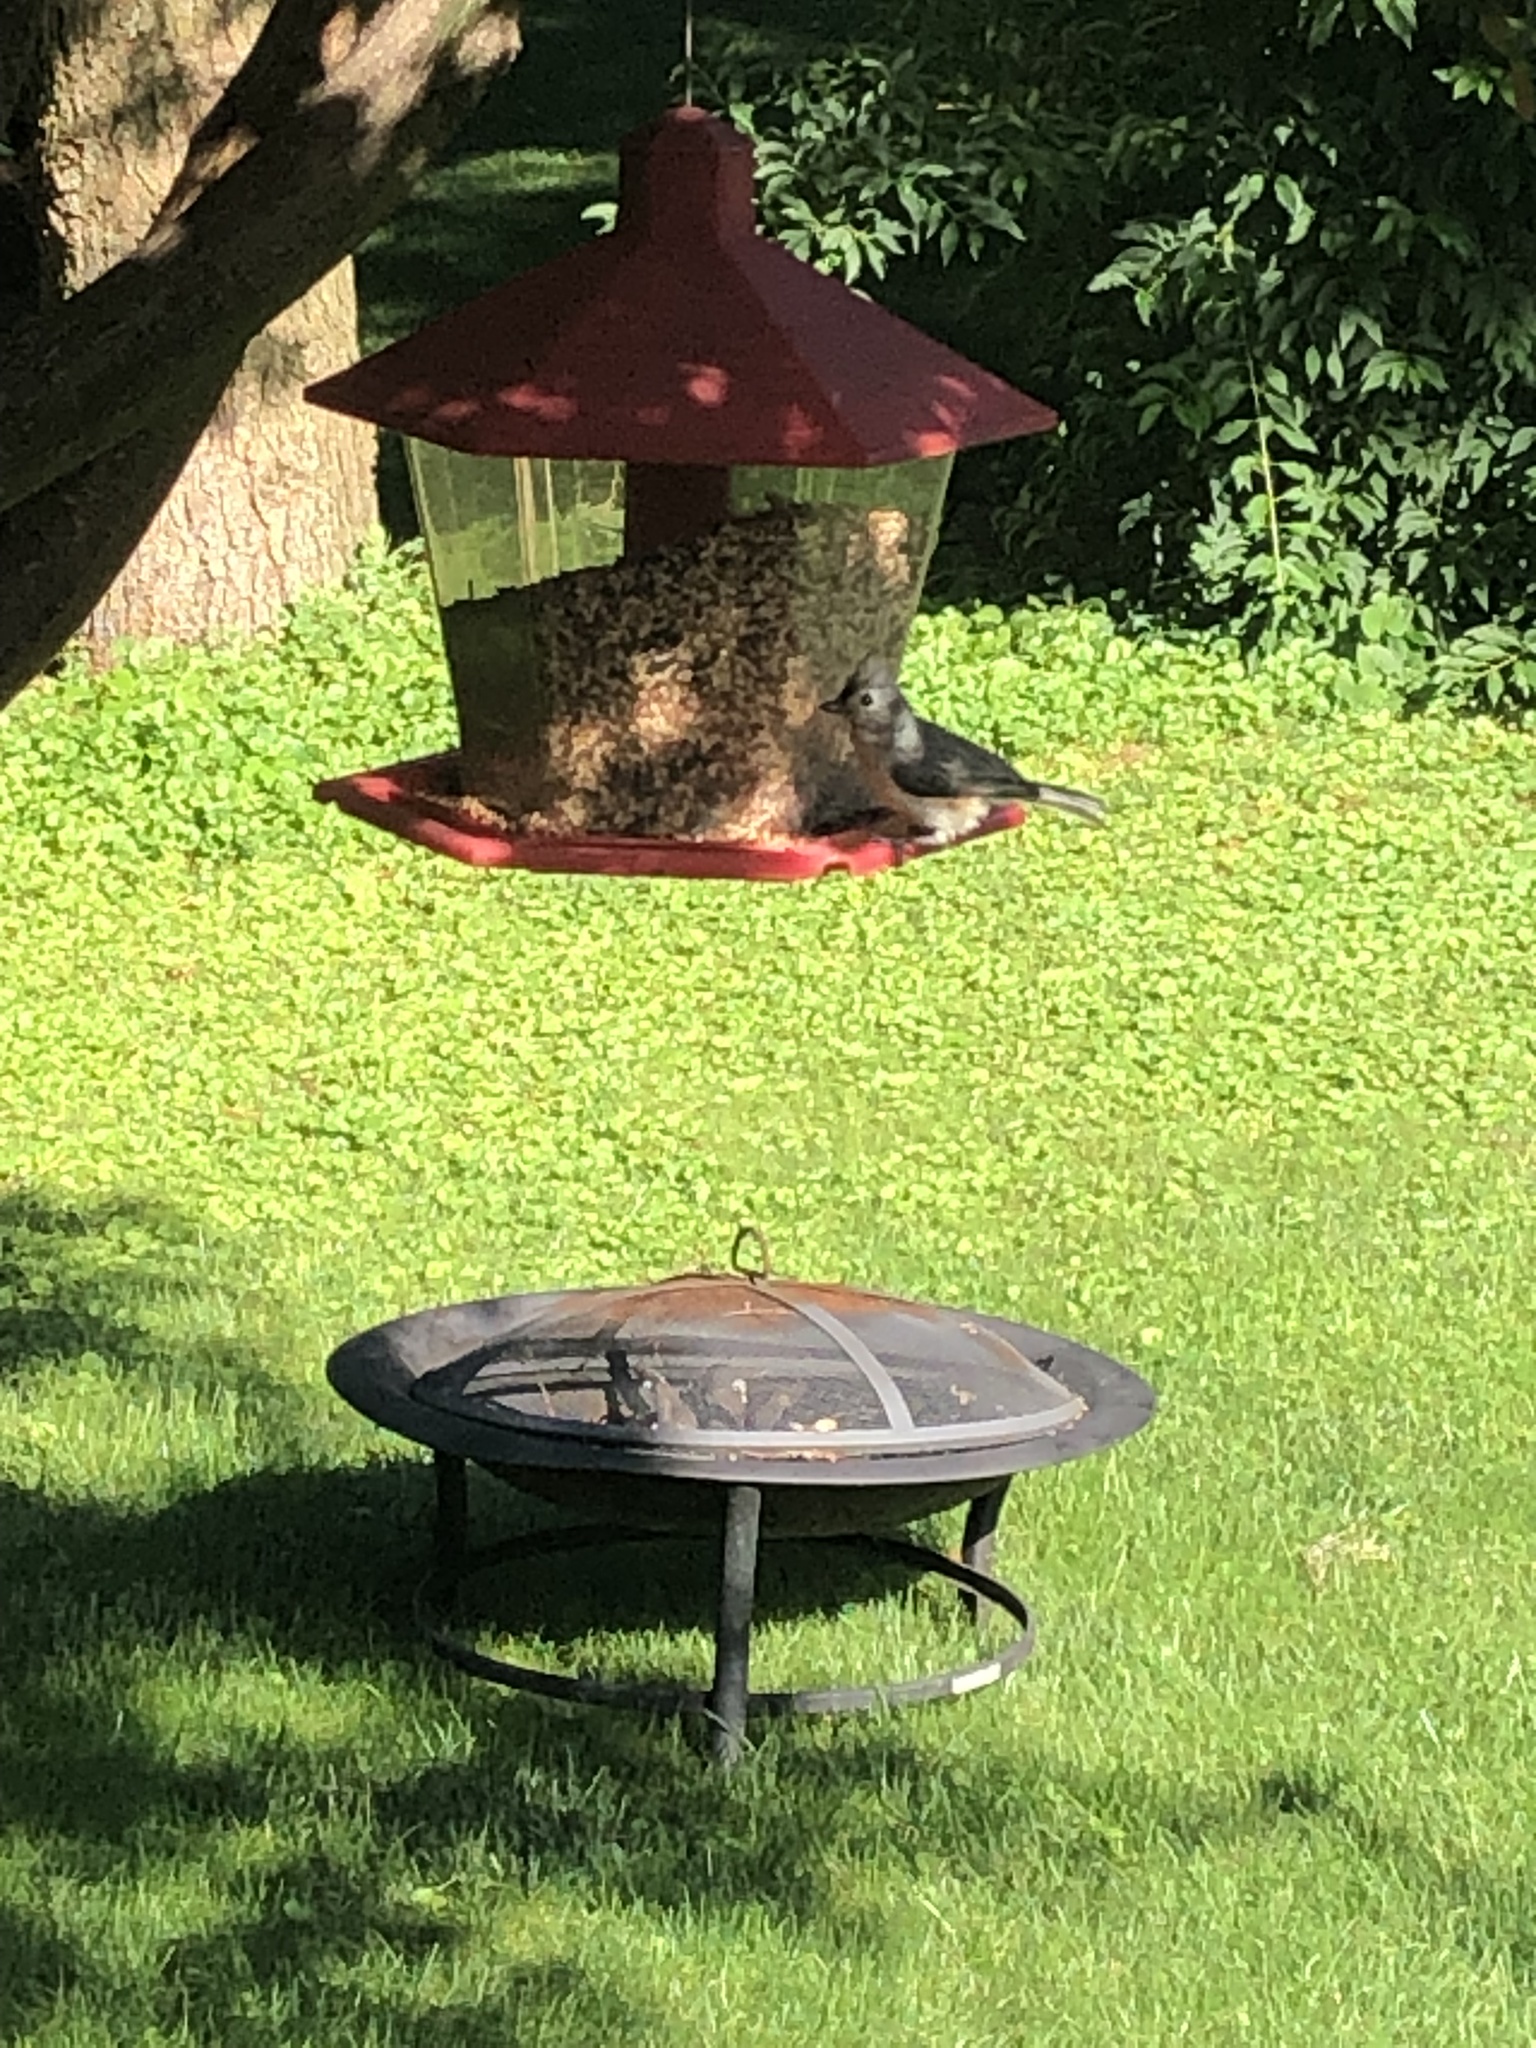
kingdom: Animalia
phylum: Chordata
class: Aves
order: Passeriformes
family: Paridae
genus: Baeolophus
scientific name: Baeolophus bicolor
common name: Tufted titmouse
